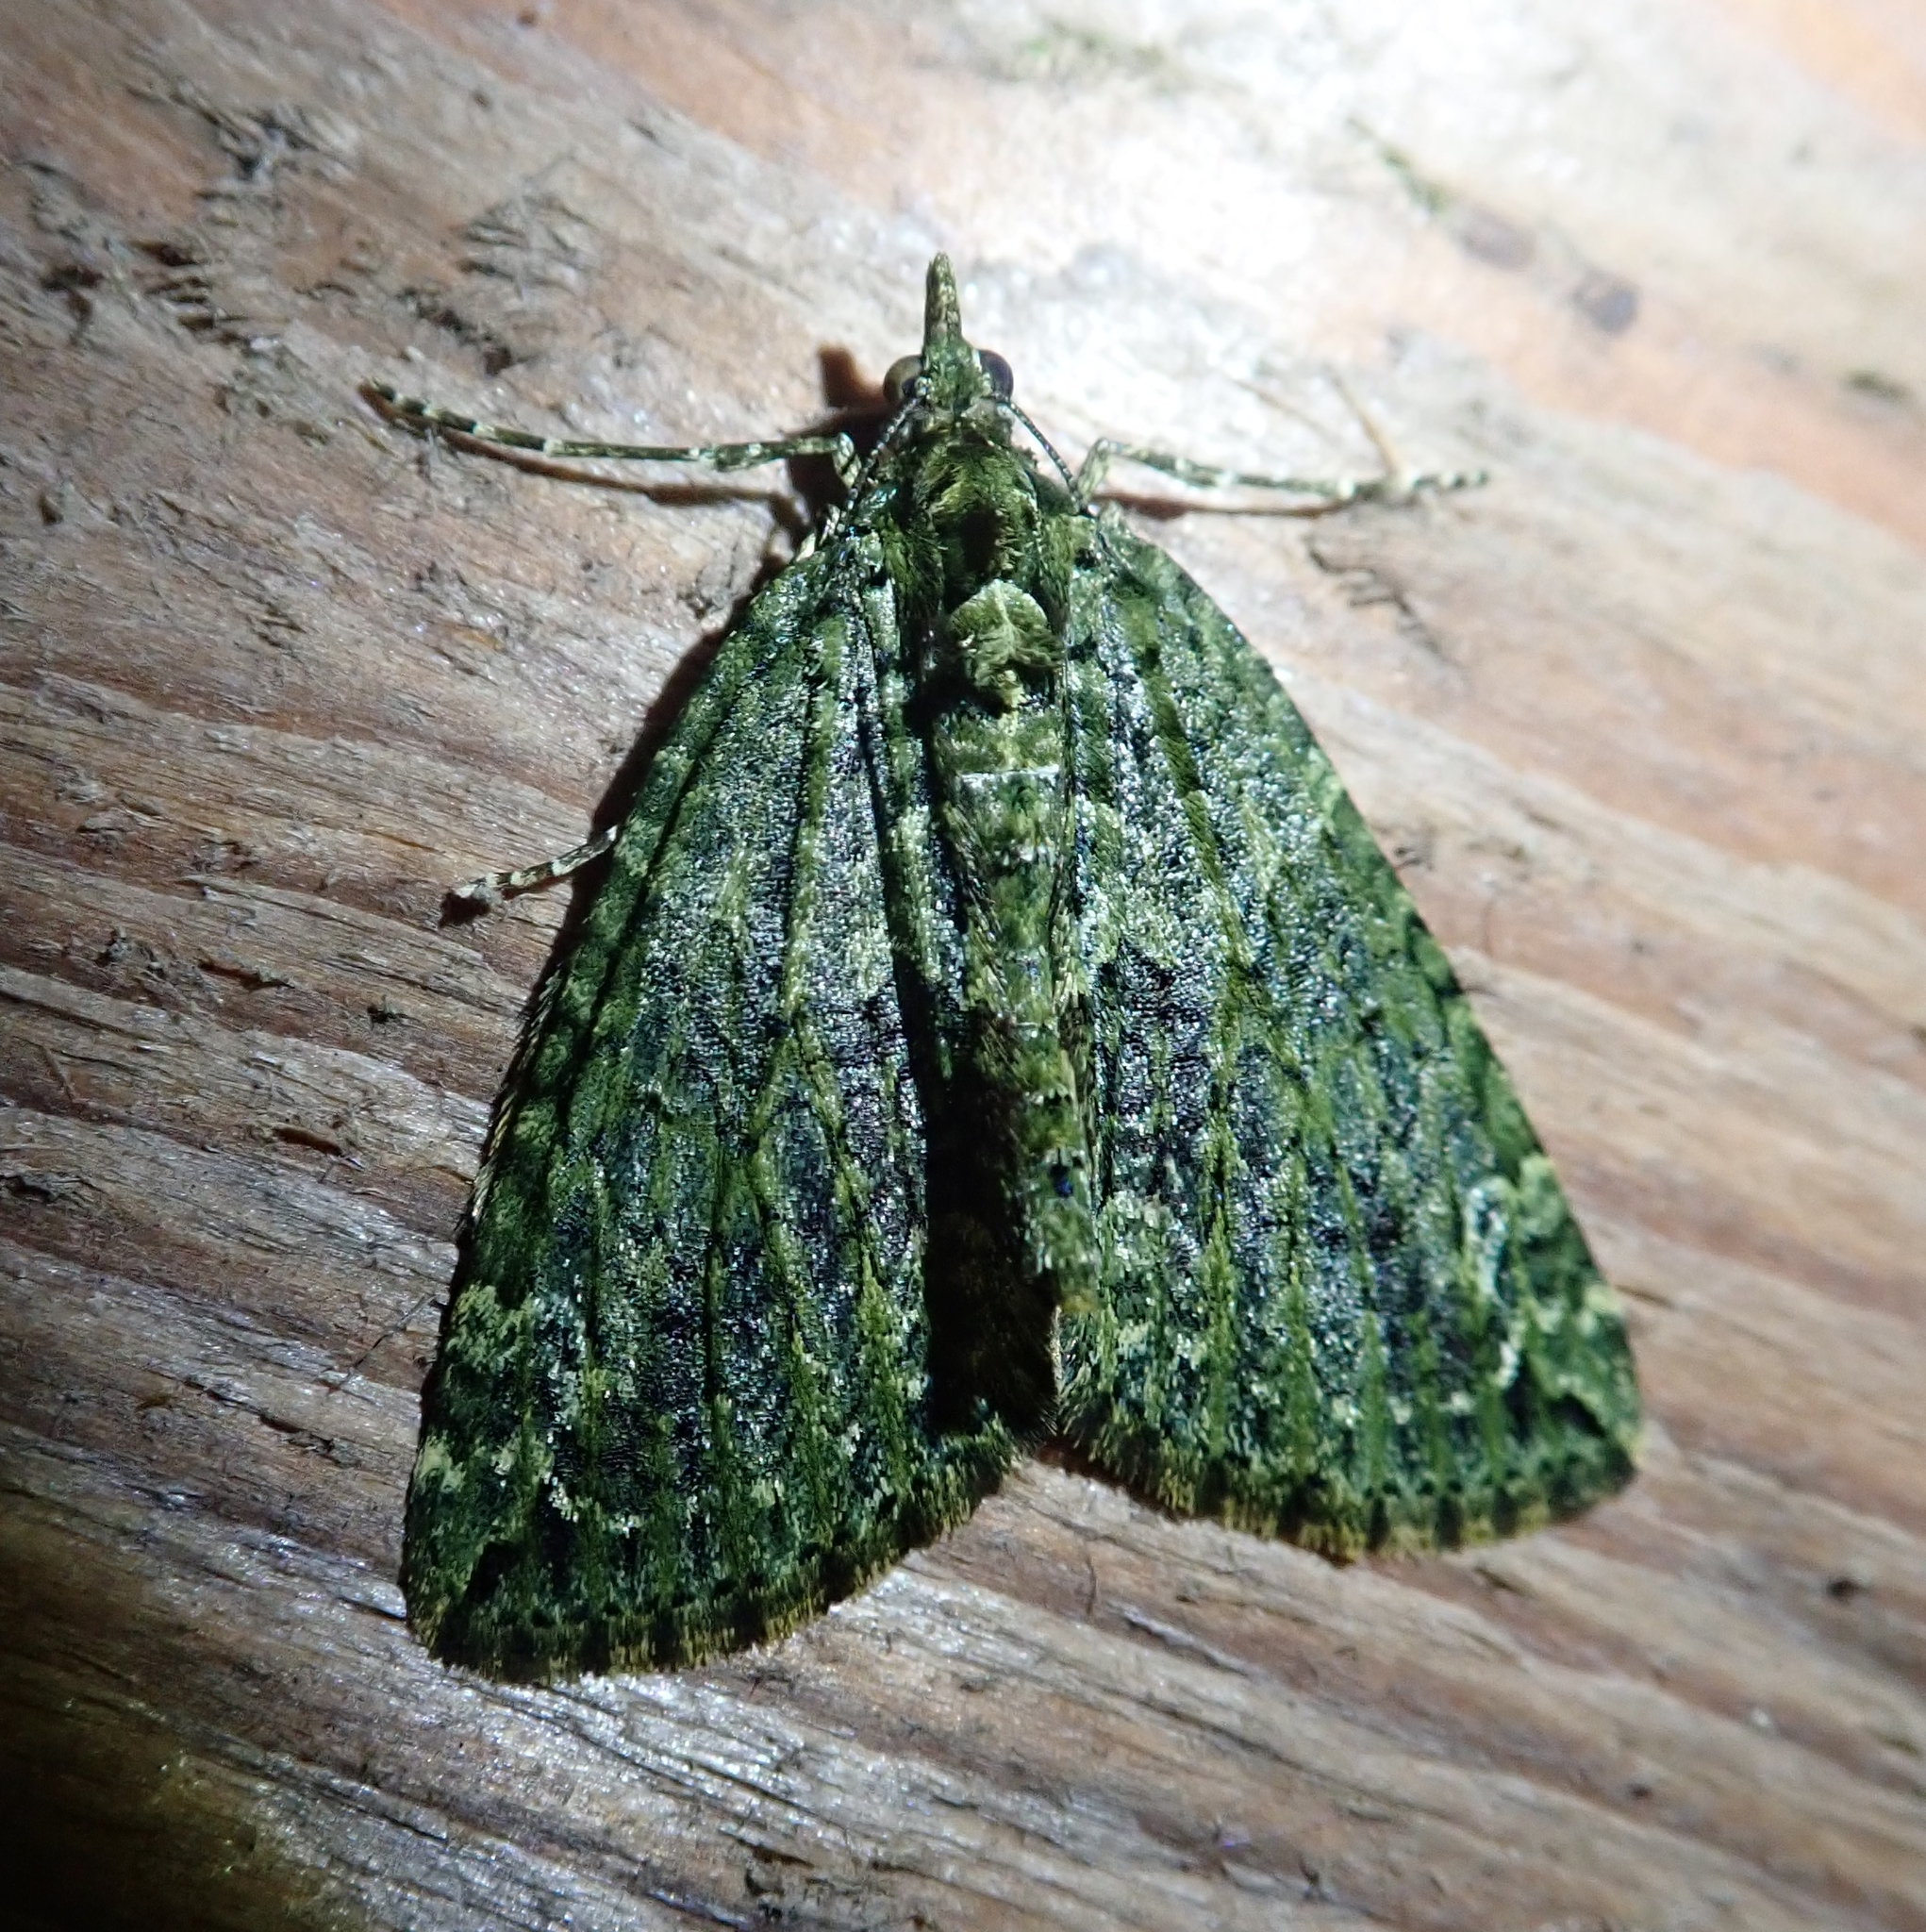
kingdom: Animalia
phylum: Arthropoda
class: Insecta
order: Lepidoptera
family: Geometridae
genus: Chloroclysta
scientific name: Chloroclysta siterata
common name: Red-green carpet
